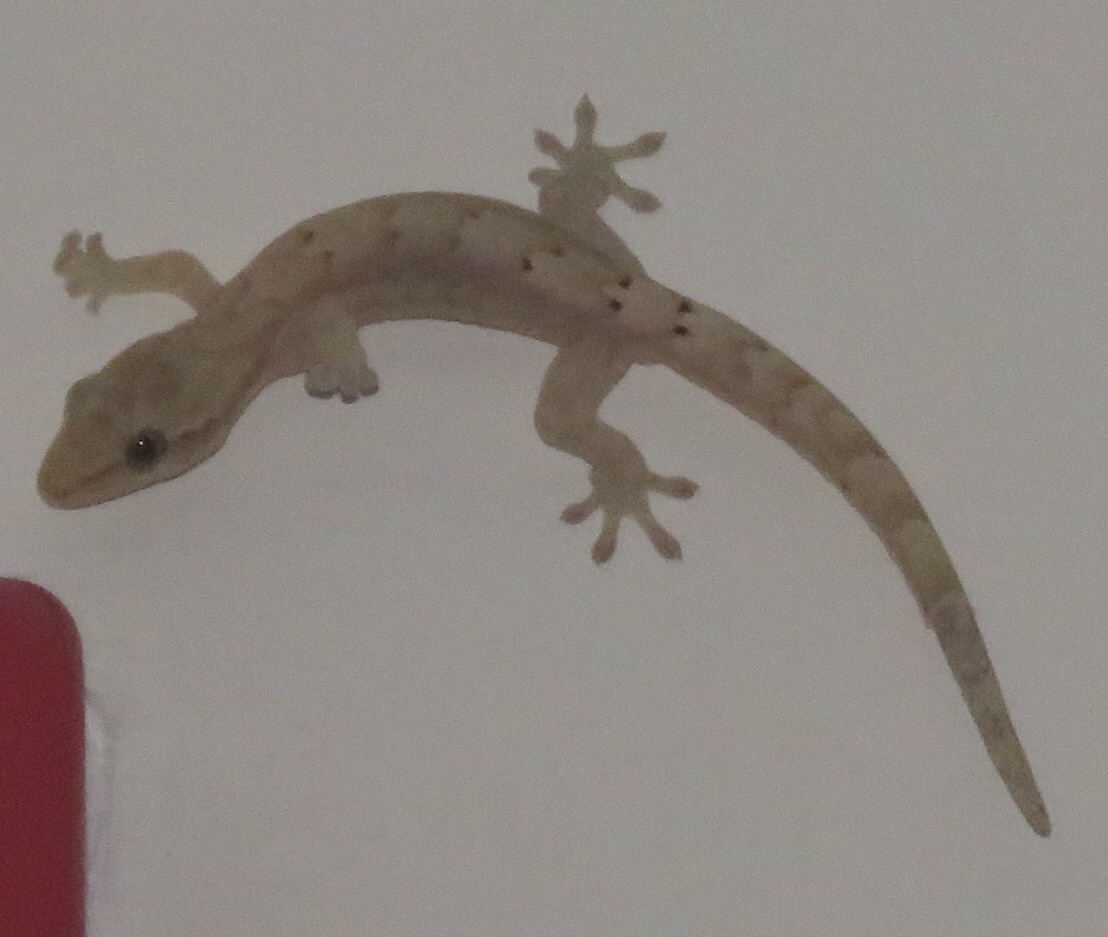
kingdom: Animalia
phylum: Chordata
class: Squamata
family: Gekkonidae
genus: Lepidodactylus
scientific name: Lepidodactylus lugubris
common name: Mourning gecko
